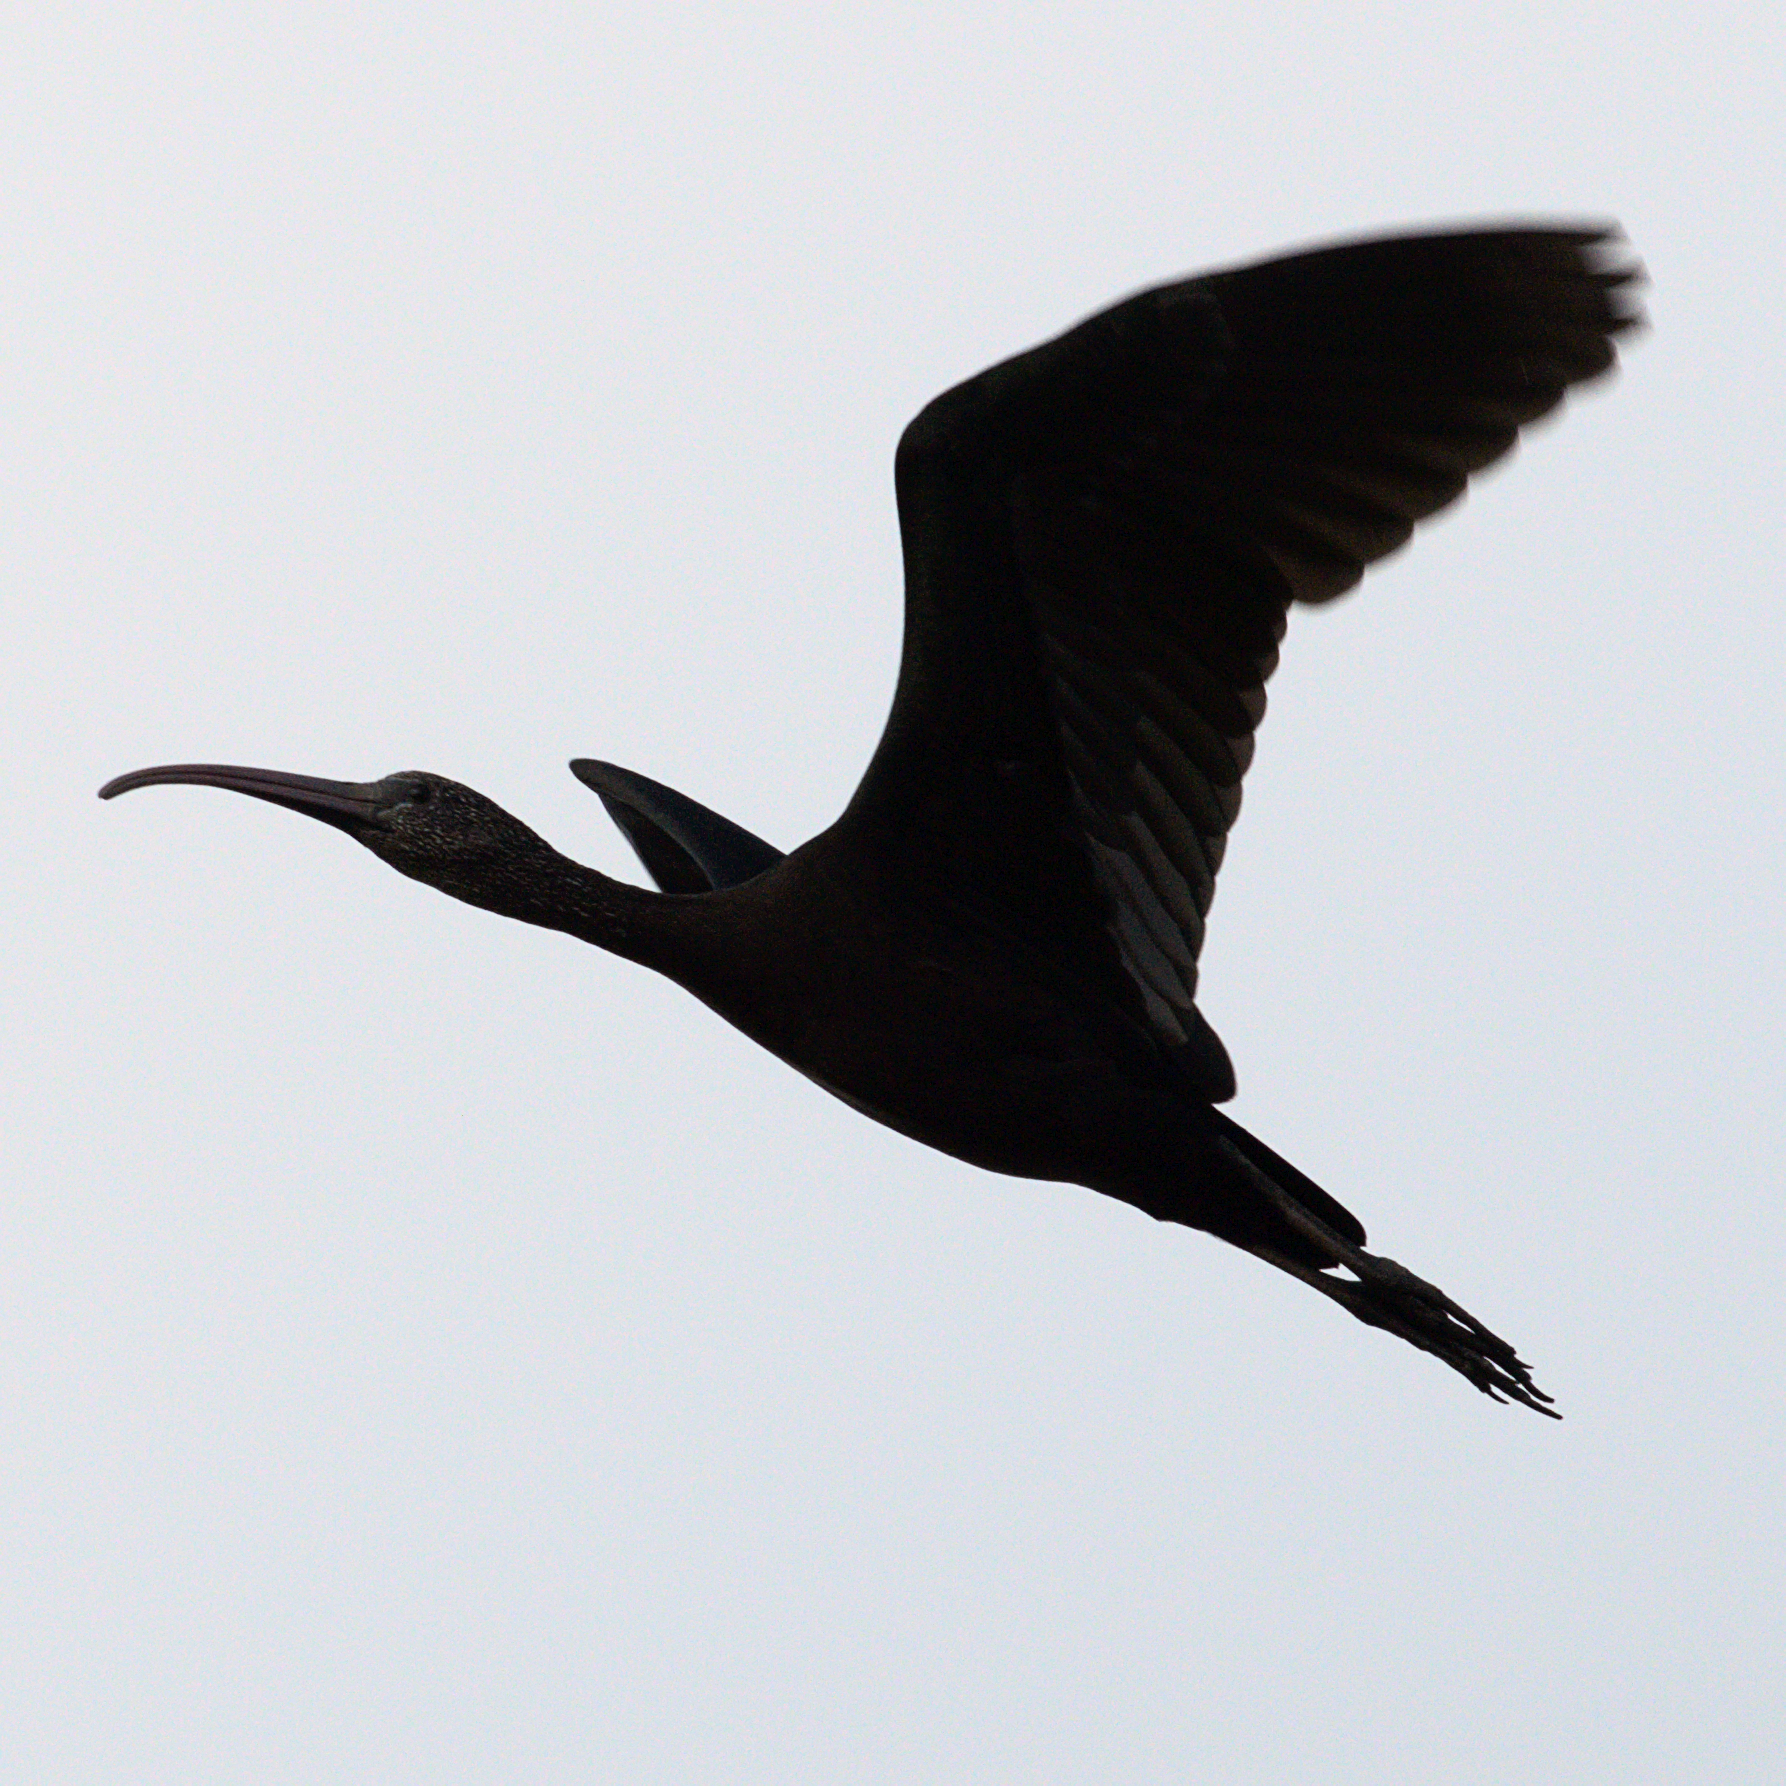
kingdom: Animalia
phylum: Chordata
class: Aves
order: Pelecaniformes
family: Threskiornithidae
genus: Plegadis
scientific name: Plegadis falcinellus
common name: Glossy ibis
